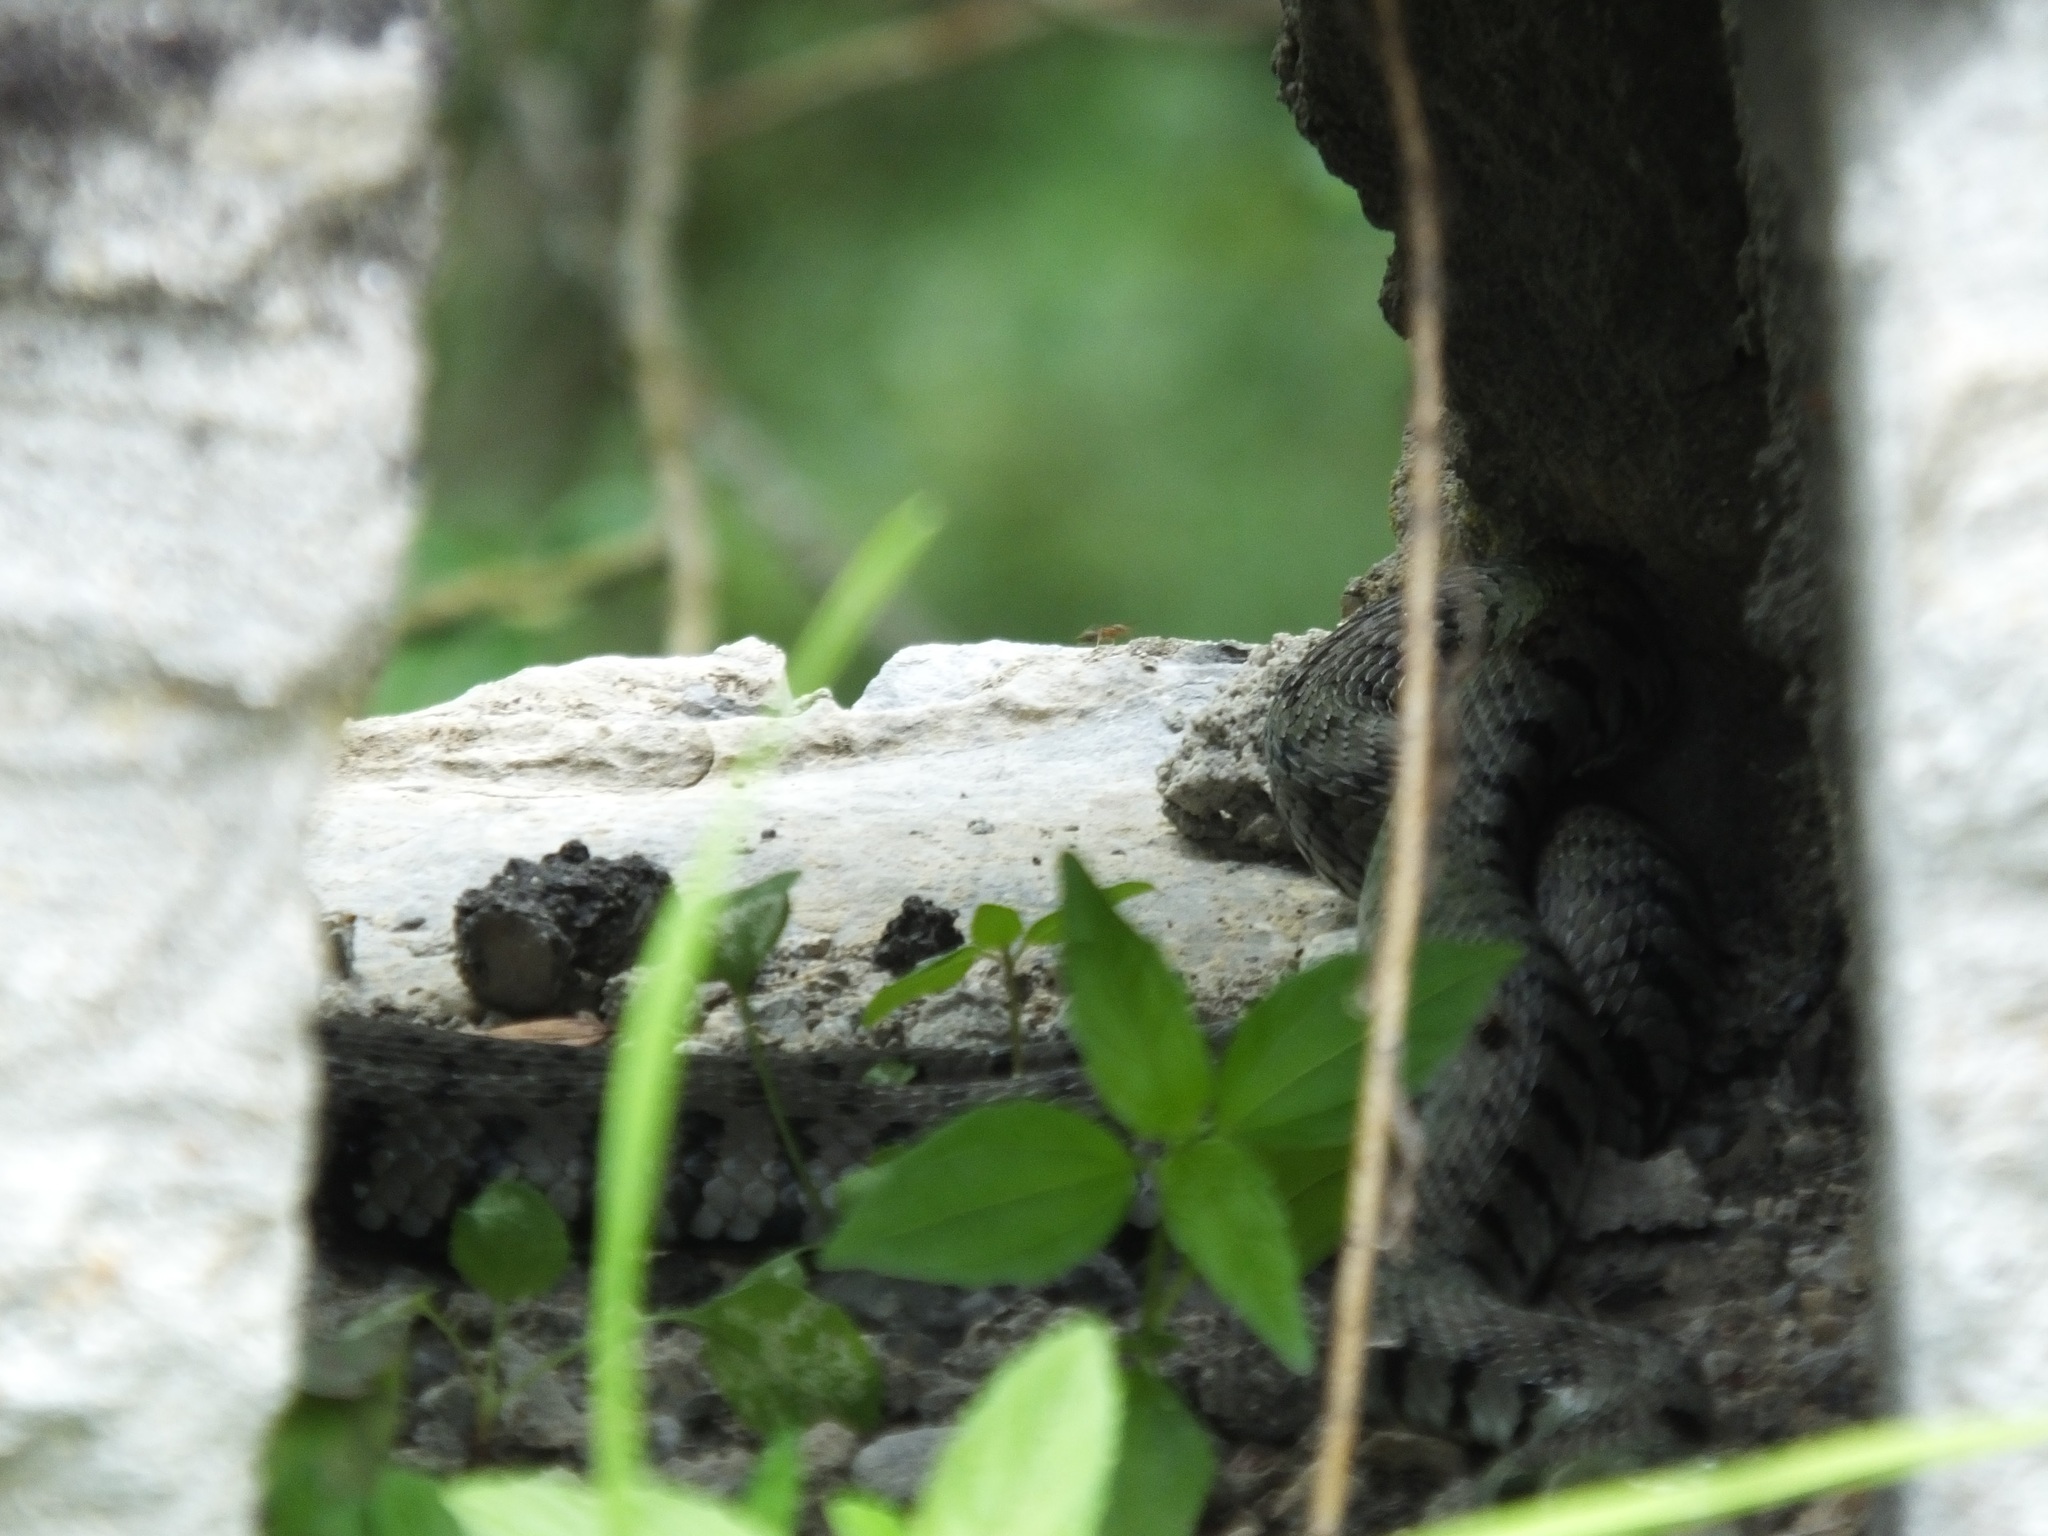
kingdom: Animalia
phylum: Chordata
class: Squamata
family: Colubridae
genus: Natrix
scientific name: Natrix helvetica
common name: Banded grass snake
